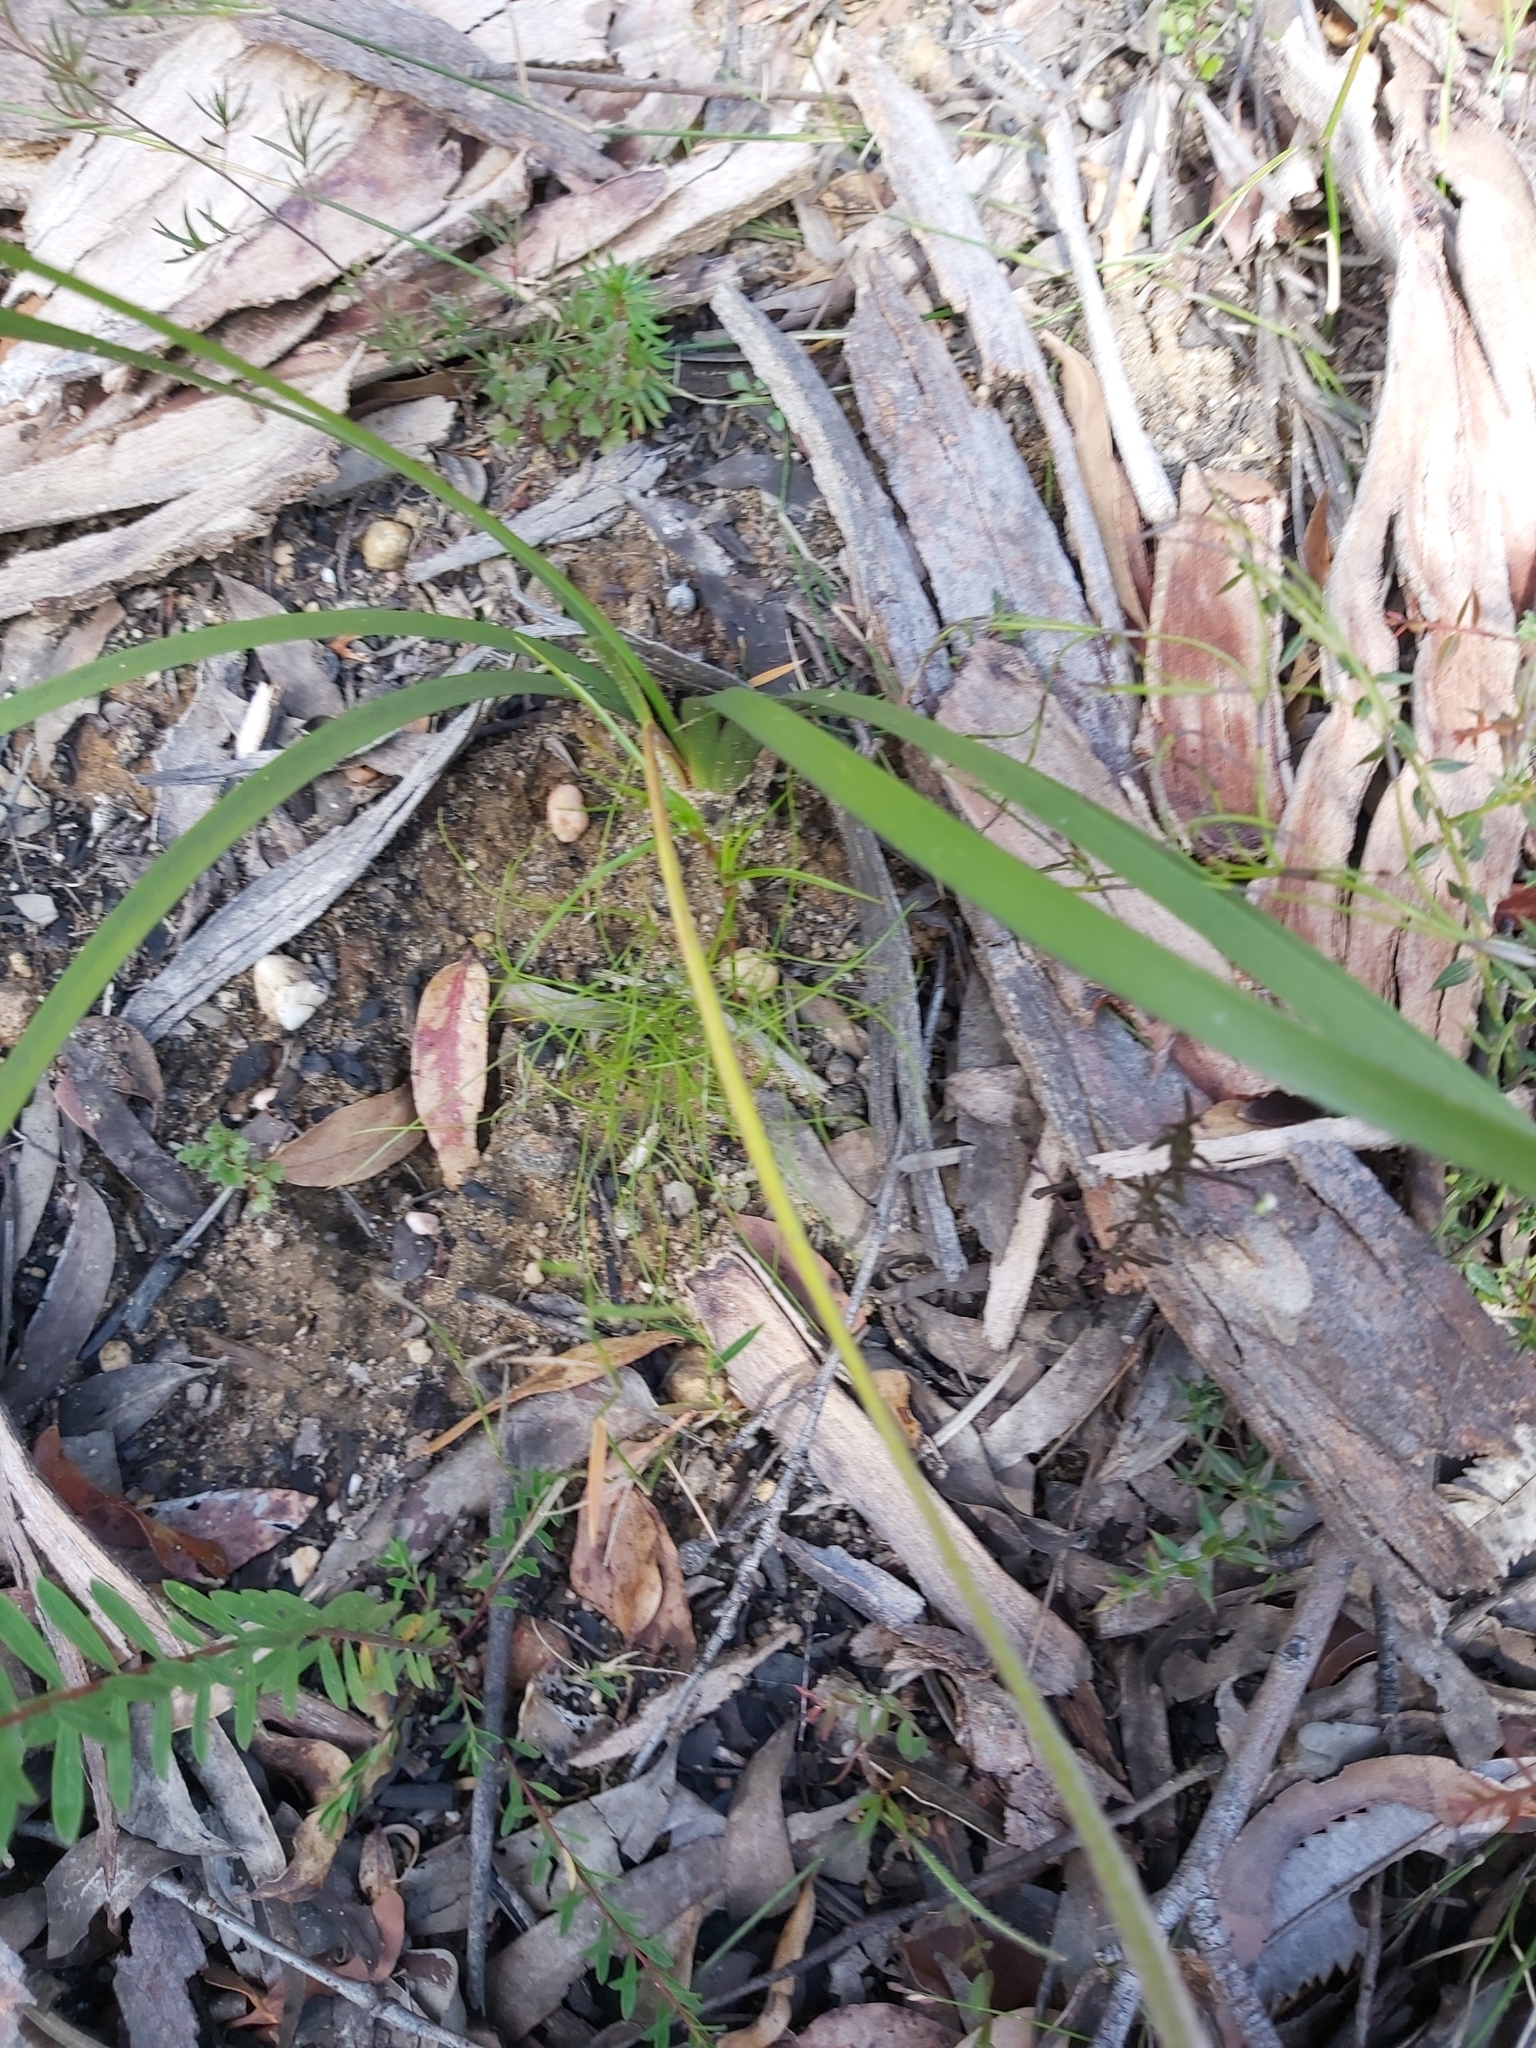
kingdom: Plantae
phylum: Tracheophyta
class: Liliopsida
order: Asparagales
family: Iridaceae
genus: Patersonia
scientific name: Patersonia sericea
